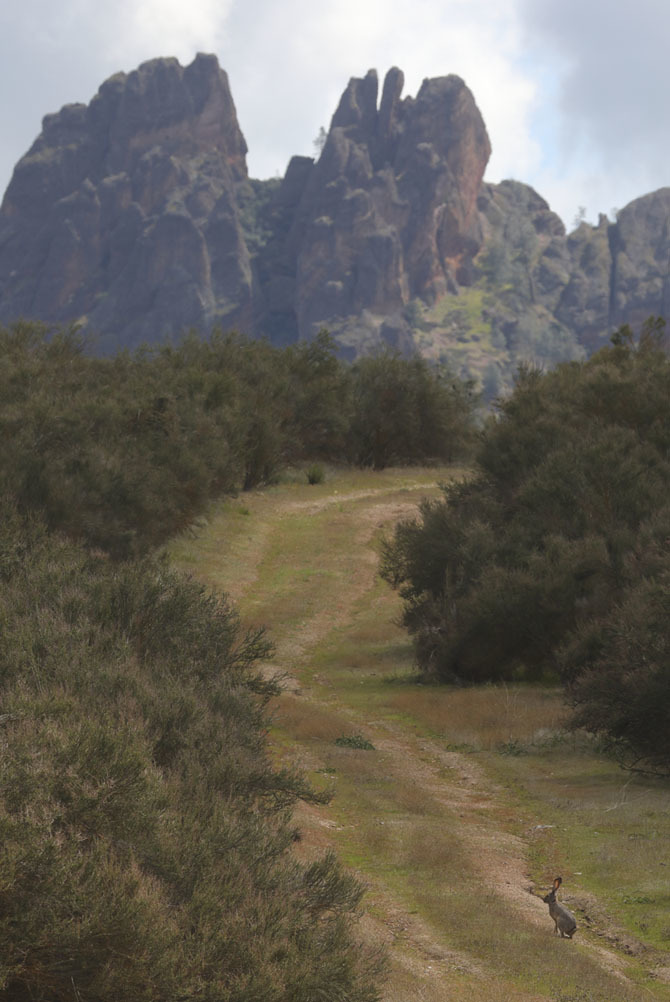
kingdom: Animalia
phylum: Chordata
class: Mammalia
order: Lagomorpha
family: Leporidae
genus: Lepus
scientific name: Lepus californicus
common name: Black-tailed jackrabbit
